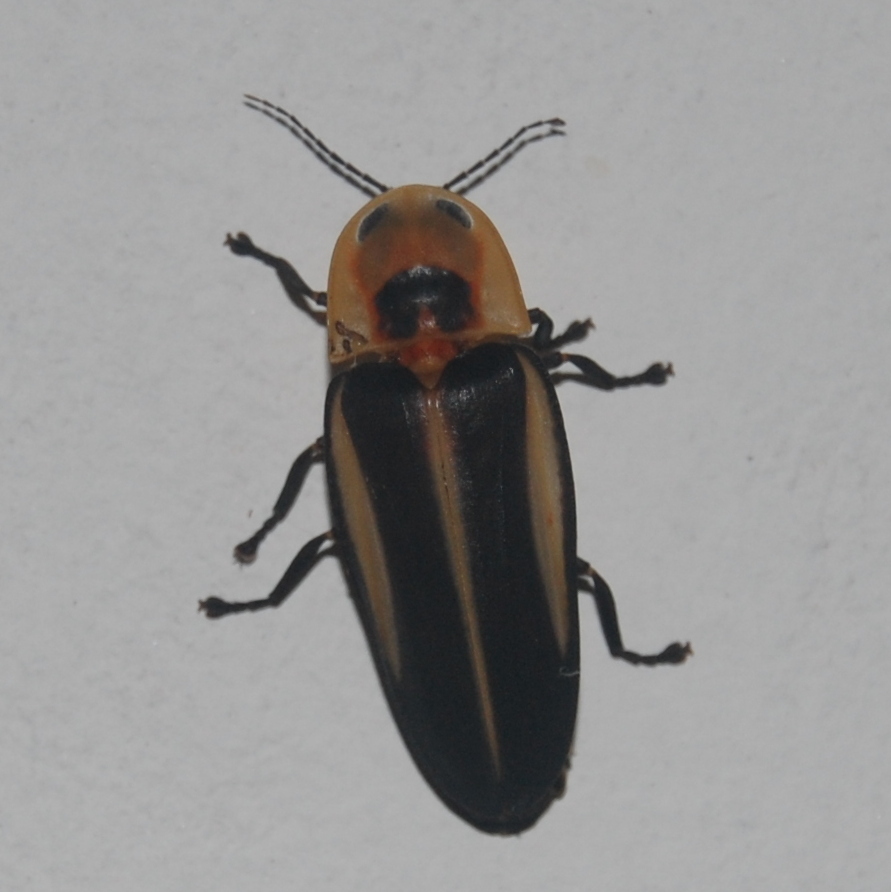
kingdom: Animalia
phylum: Arthropoda
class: Insecta
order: Coleoptera
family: Lampyridae
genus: Cratomorphus
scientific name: Cratomorphus diaphanus
